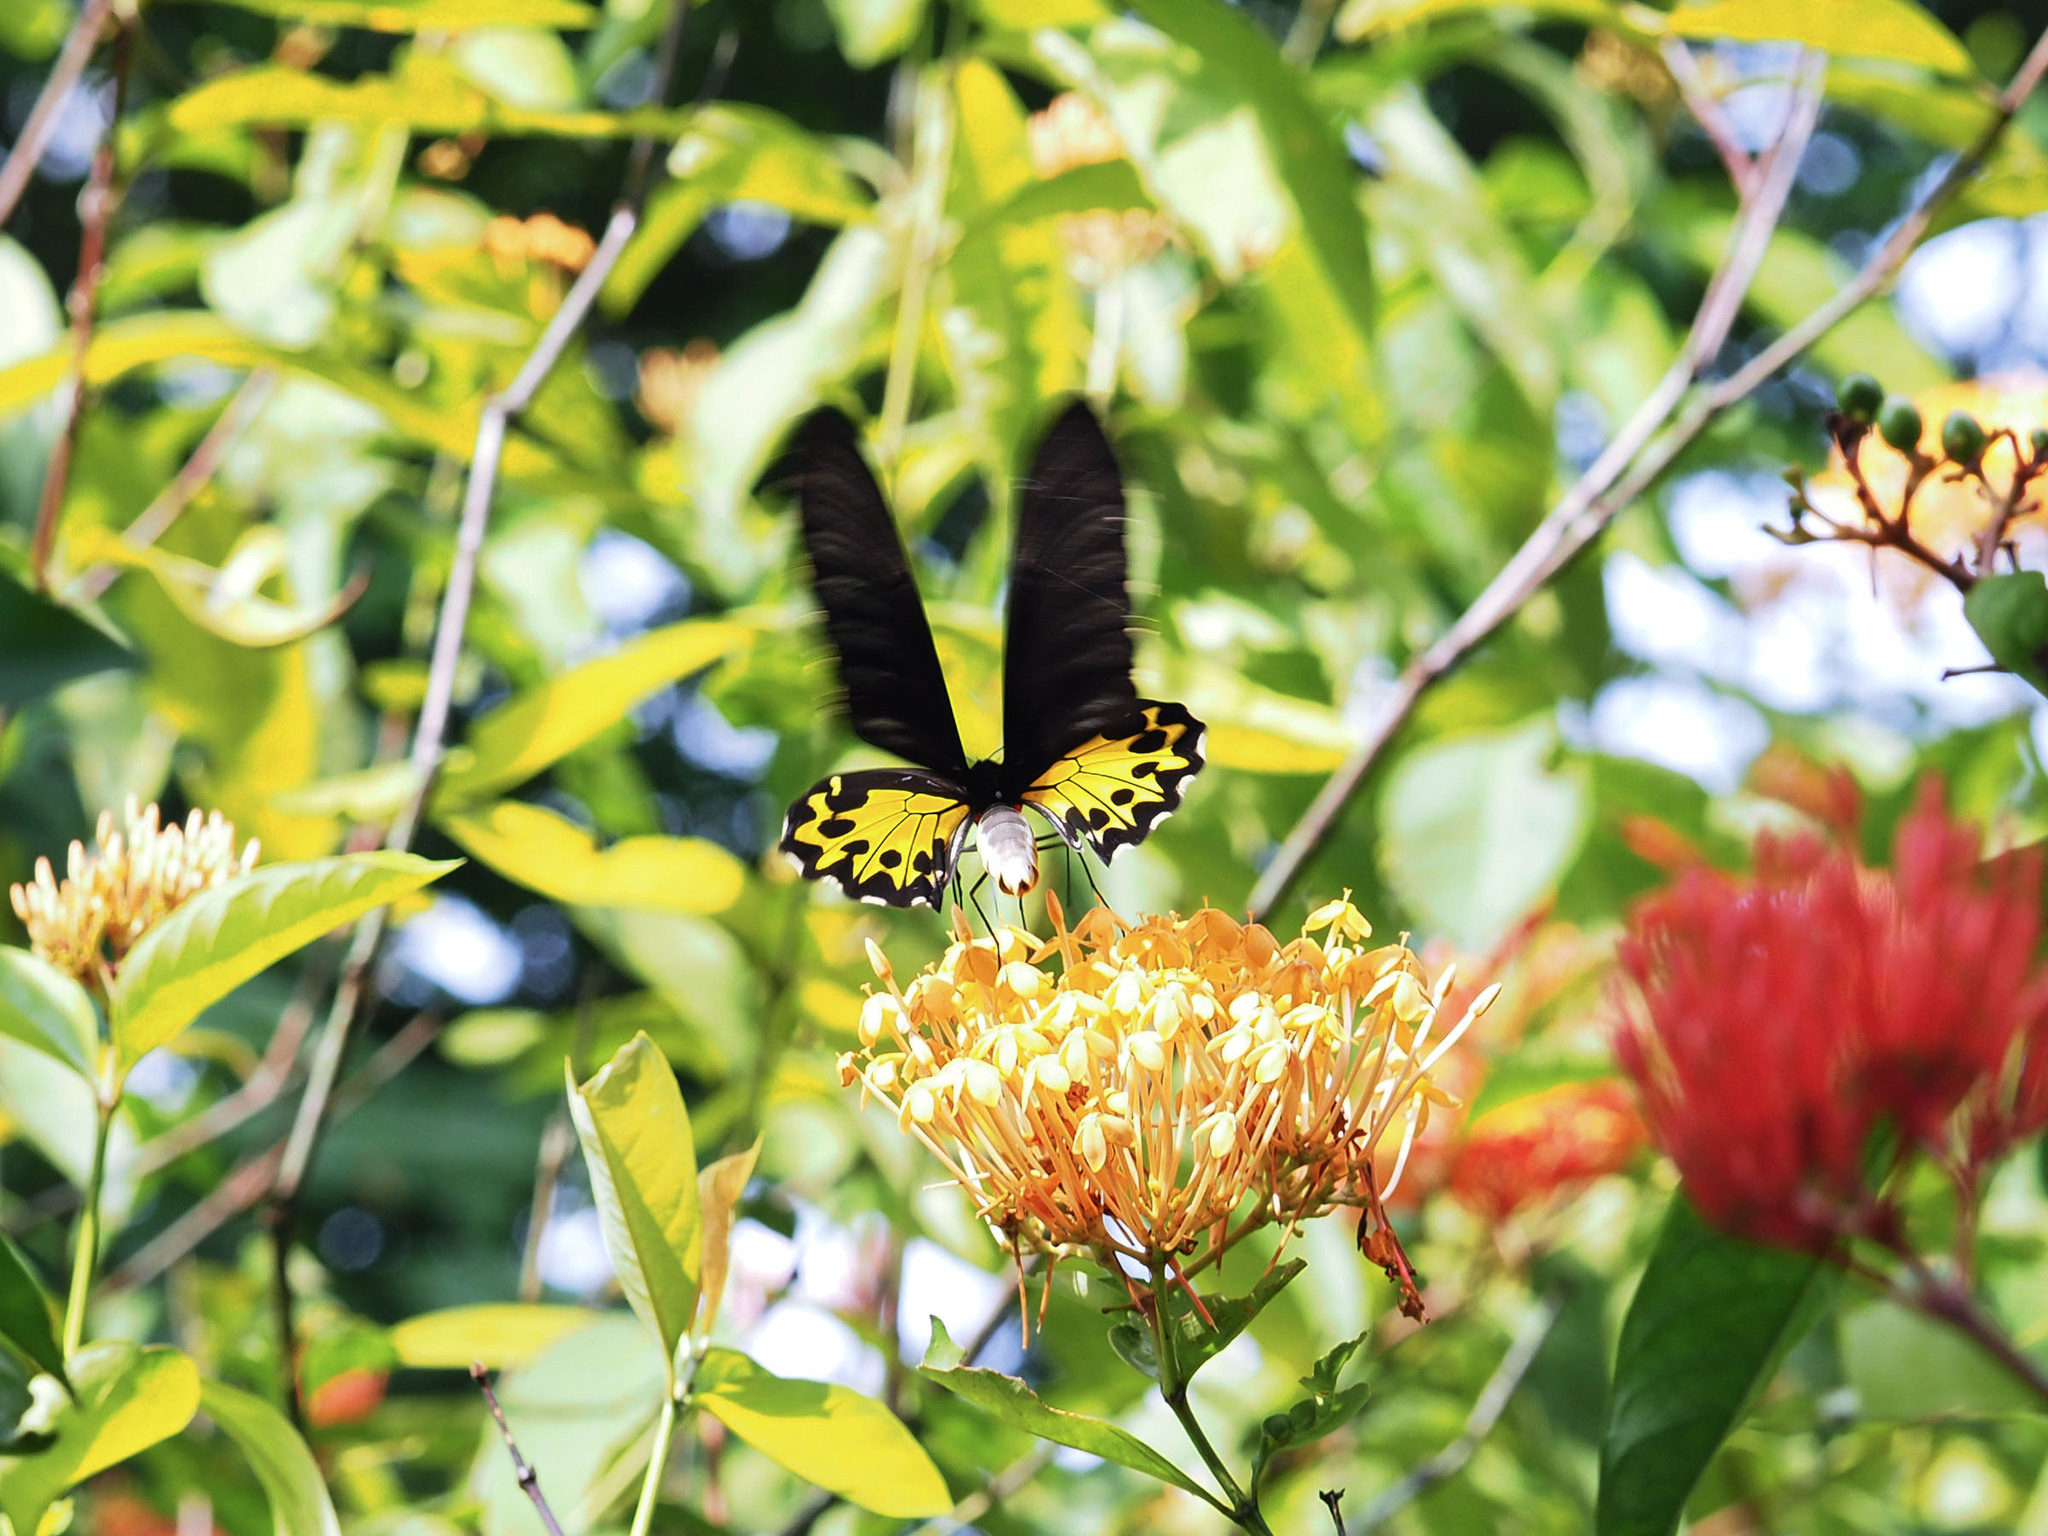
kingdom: Animalia
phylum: Arthropoda
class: Insecta
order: Lepidoptera
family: Papilionidae
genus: Troides
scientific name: Troides helena
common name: Common birdwing
